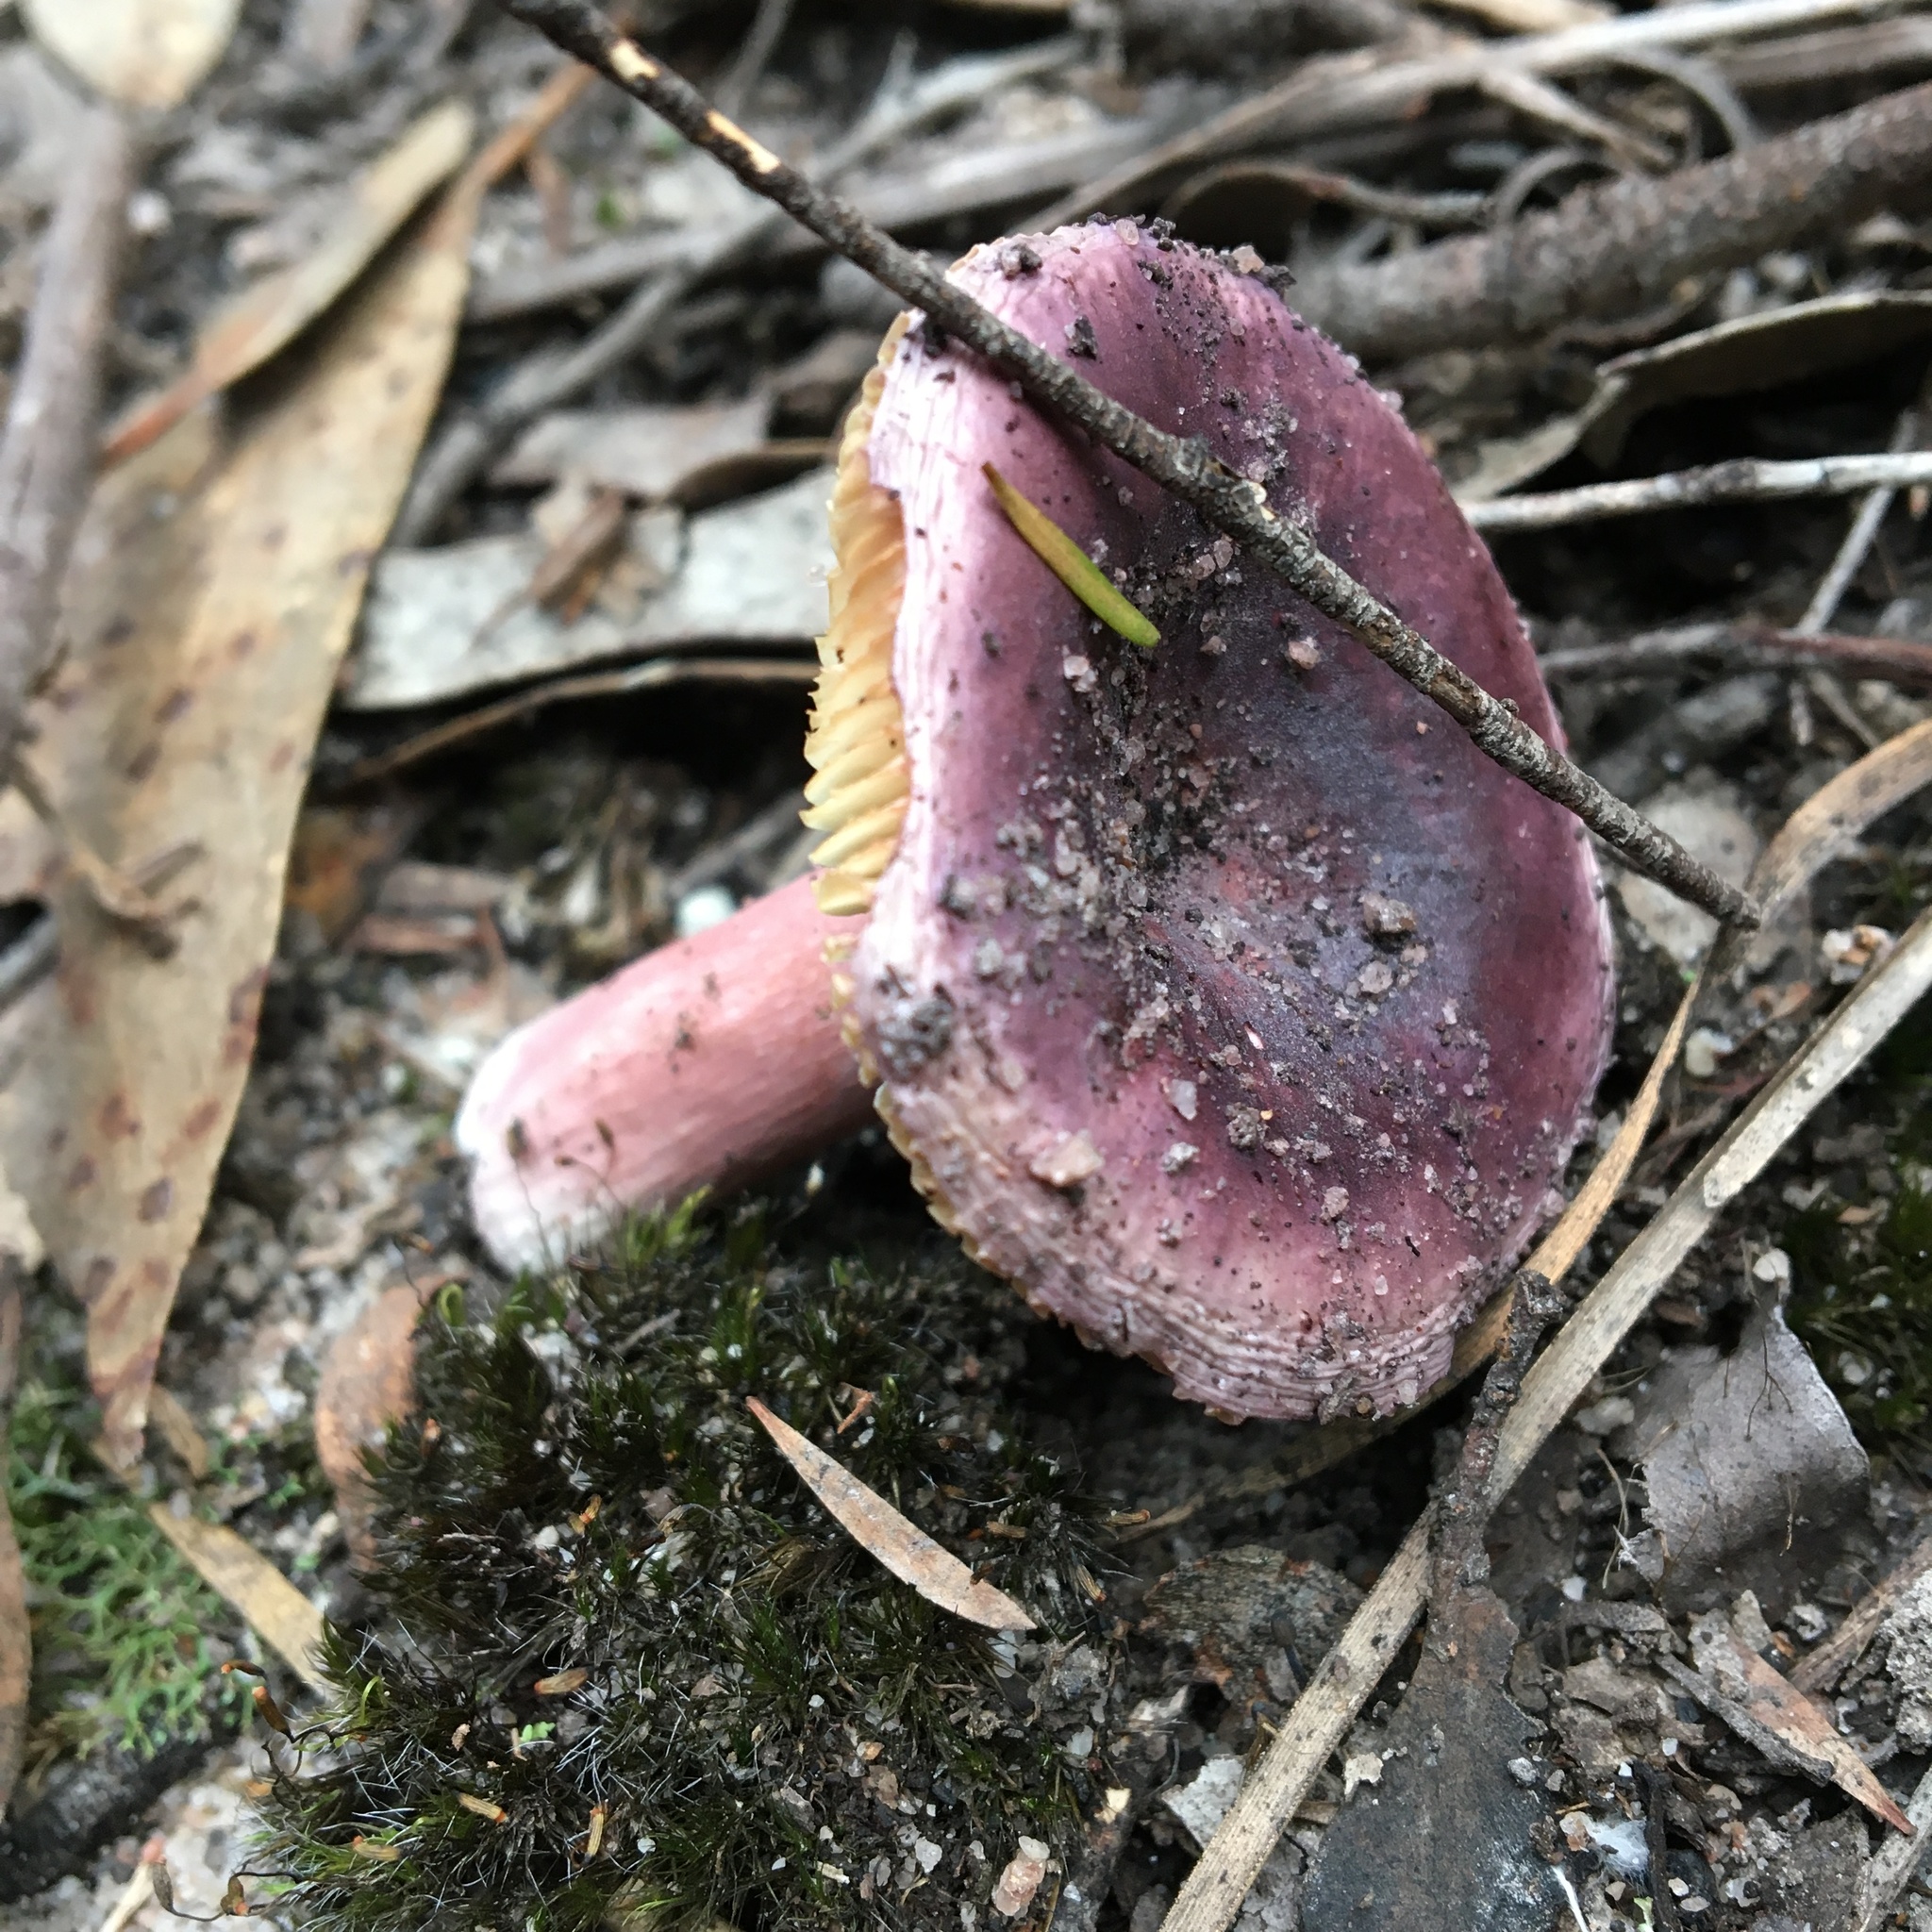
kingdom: Fungi
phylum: Basidiomycota
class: Agaricomycetes
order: Russulales
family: Russulaceae
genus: Russula
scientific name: Russula lenkunya
